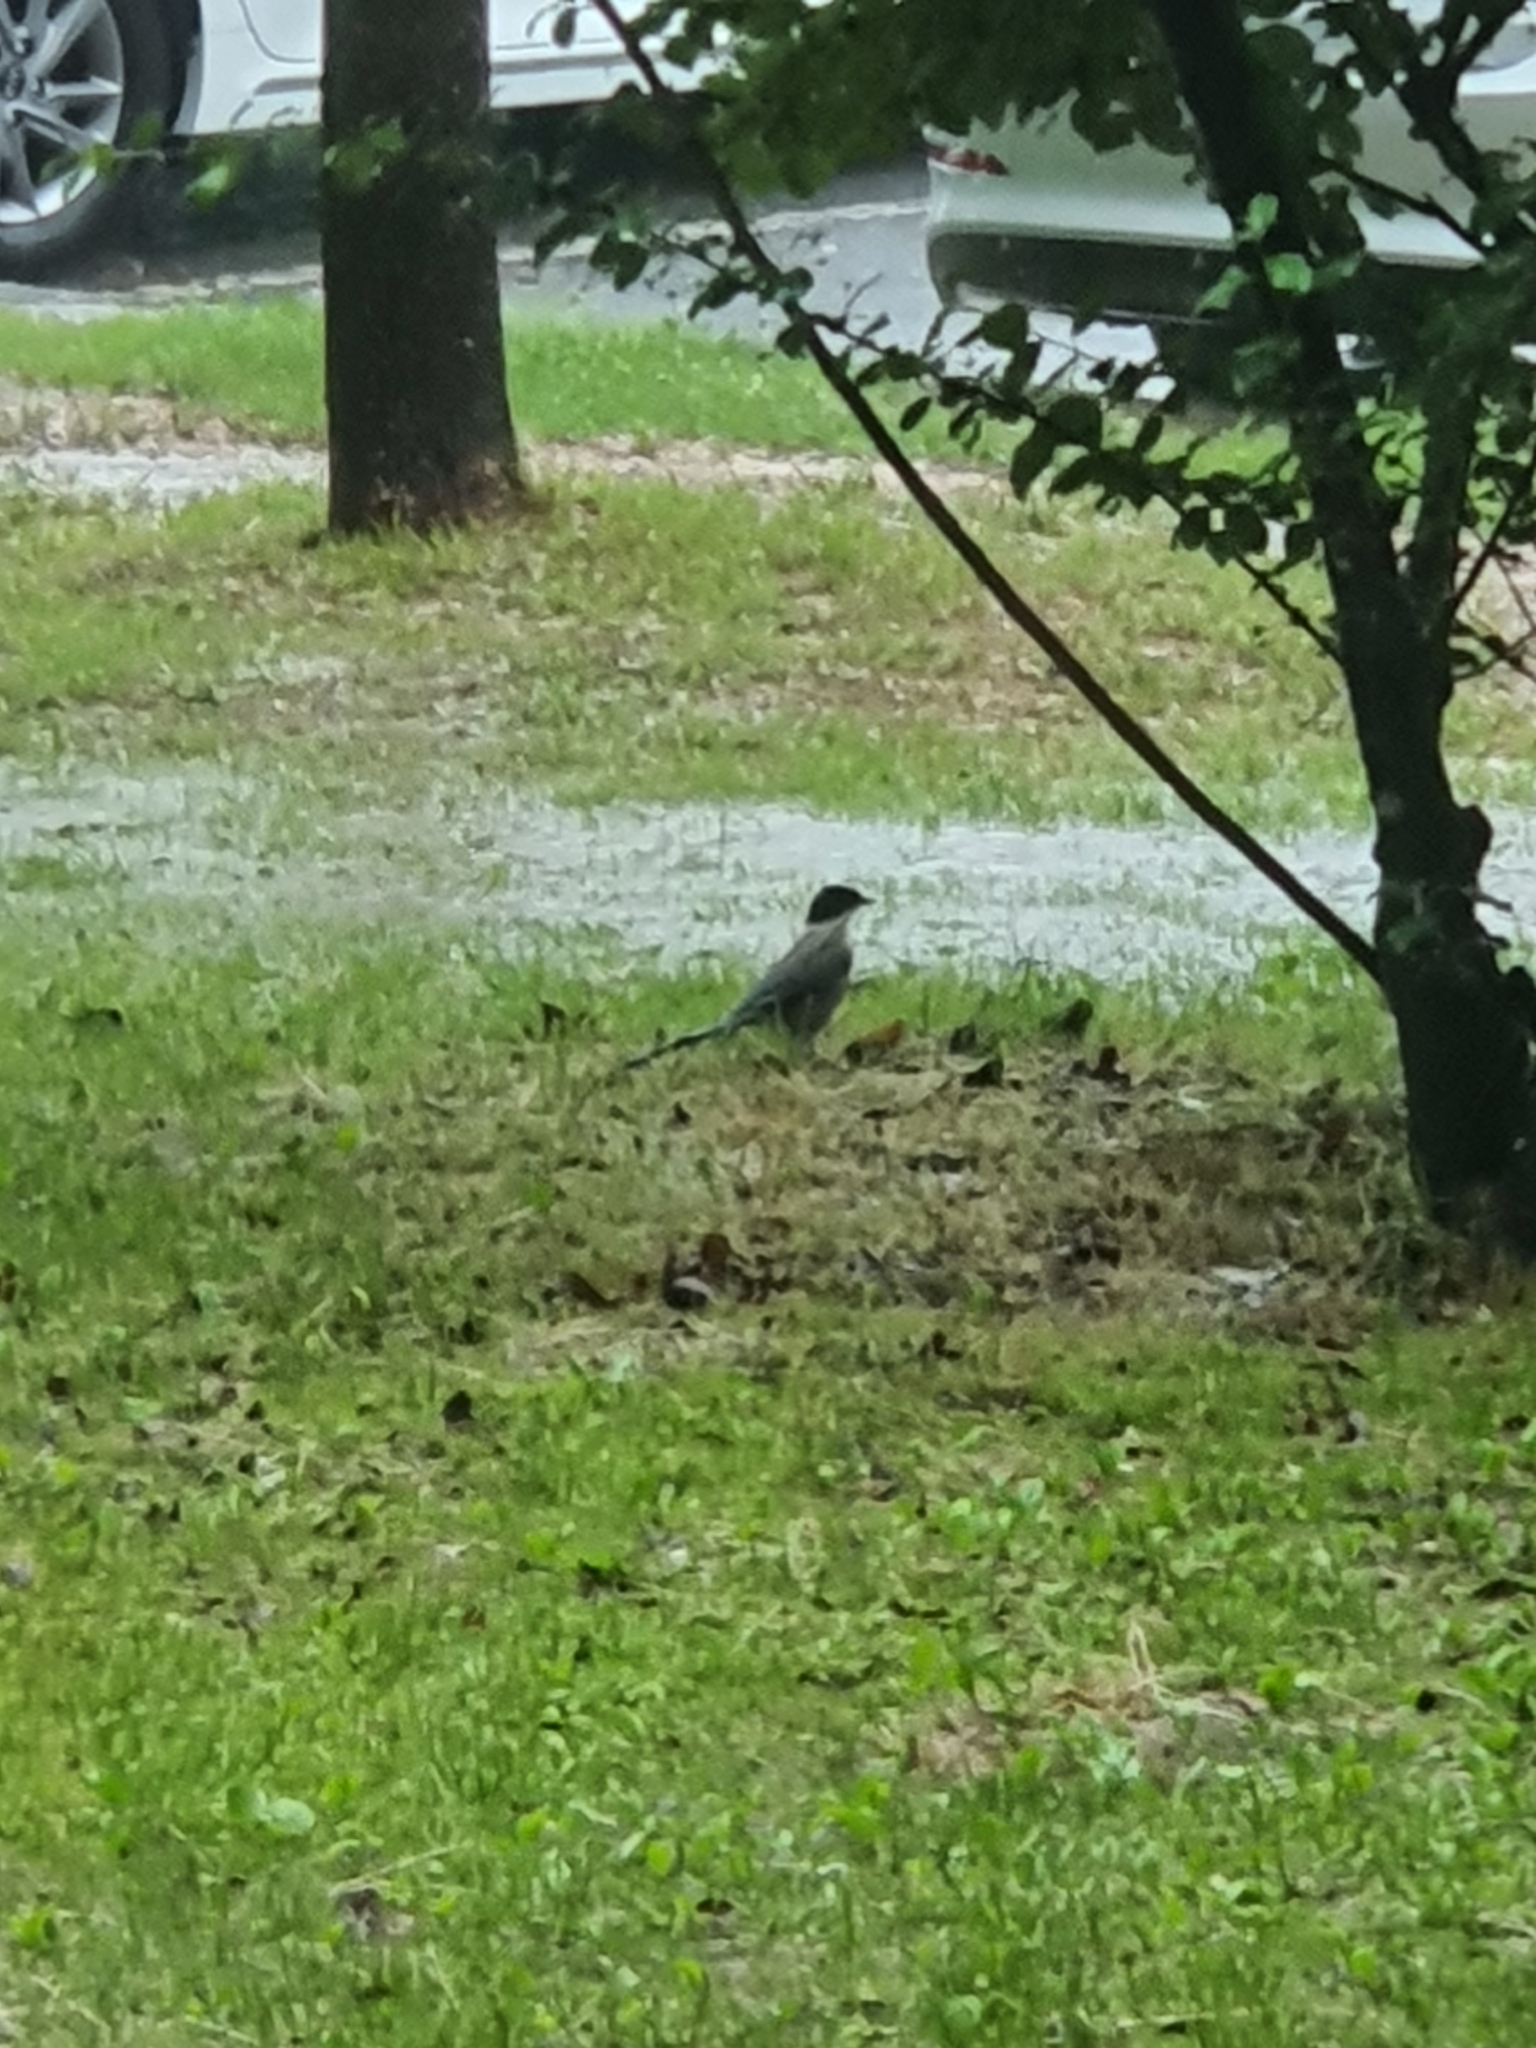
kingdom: Animalia
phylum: Chordata
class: Aves
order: Passeriformes
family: Corvidae
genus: Cyanopica
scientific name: Cyanopica cyanus
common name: Azure-winged magpie
